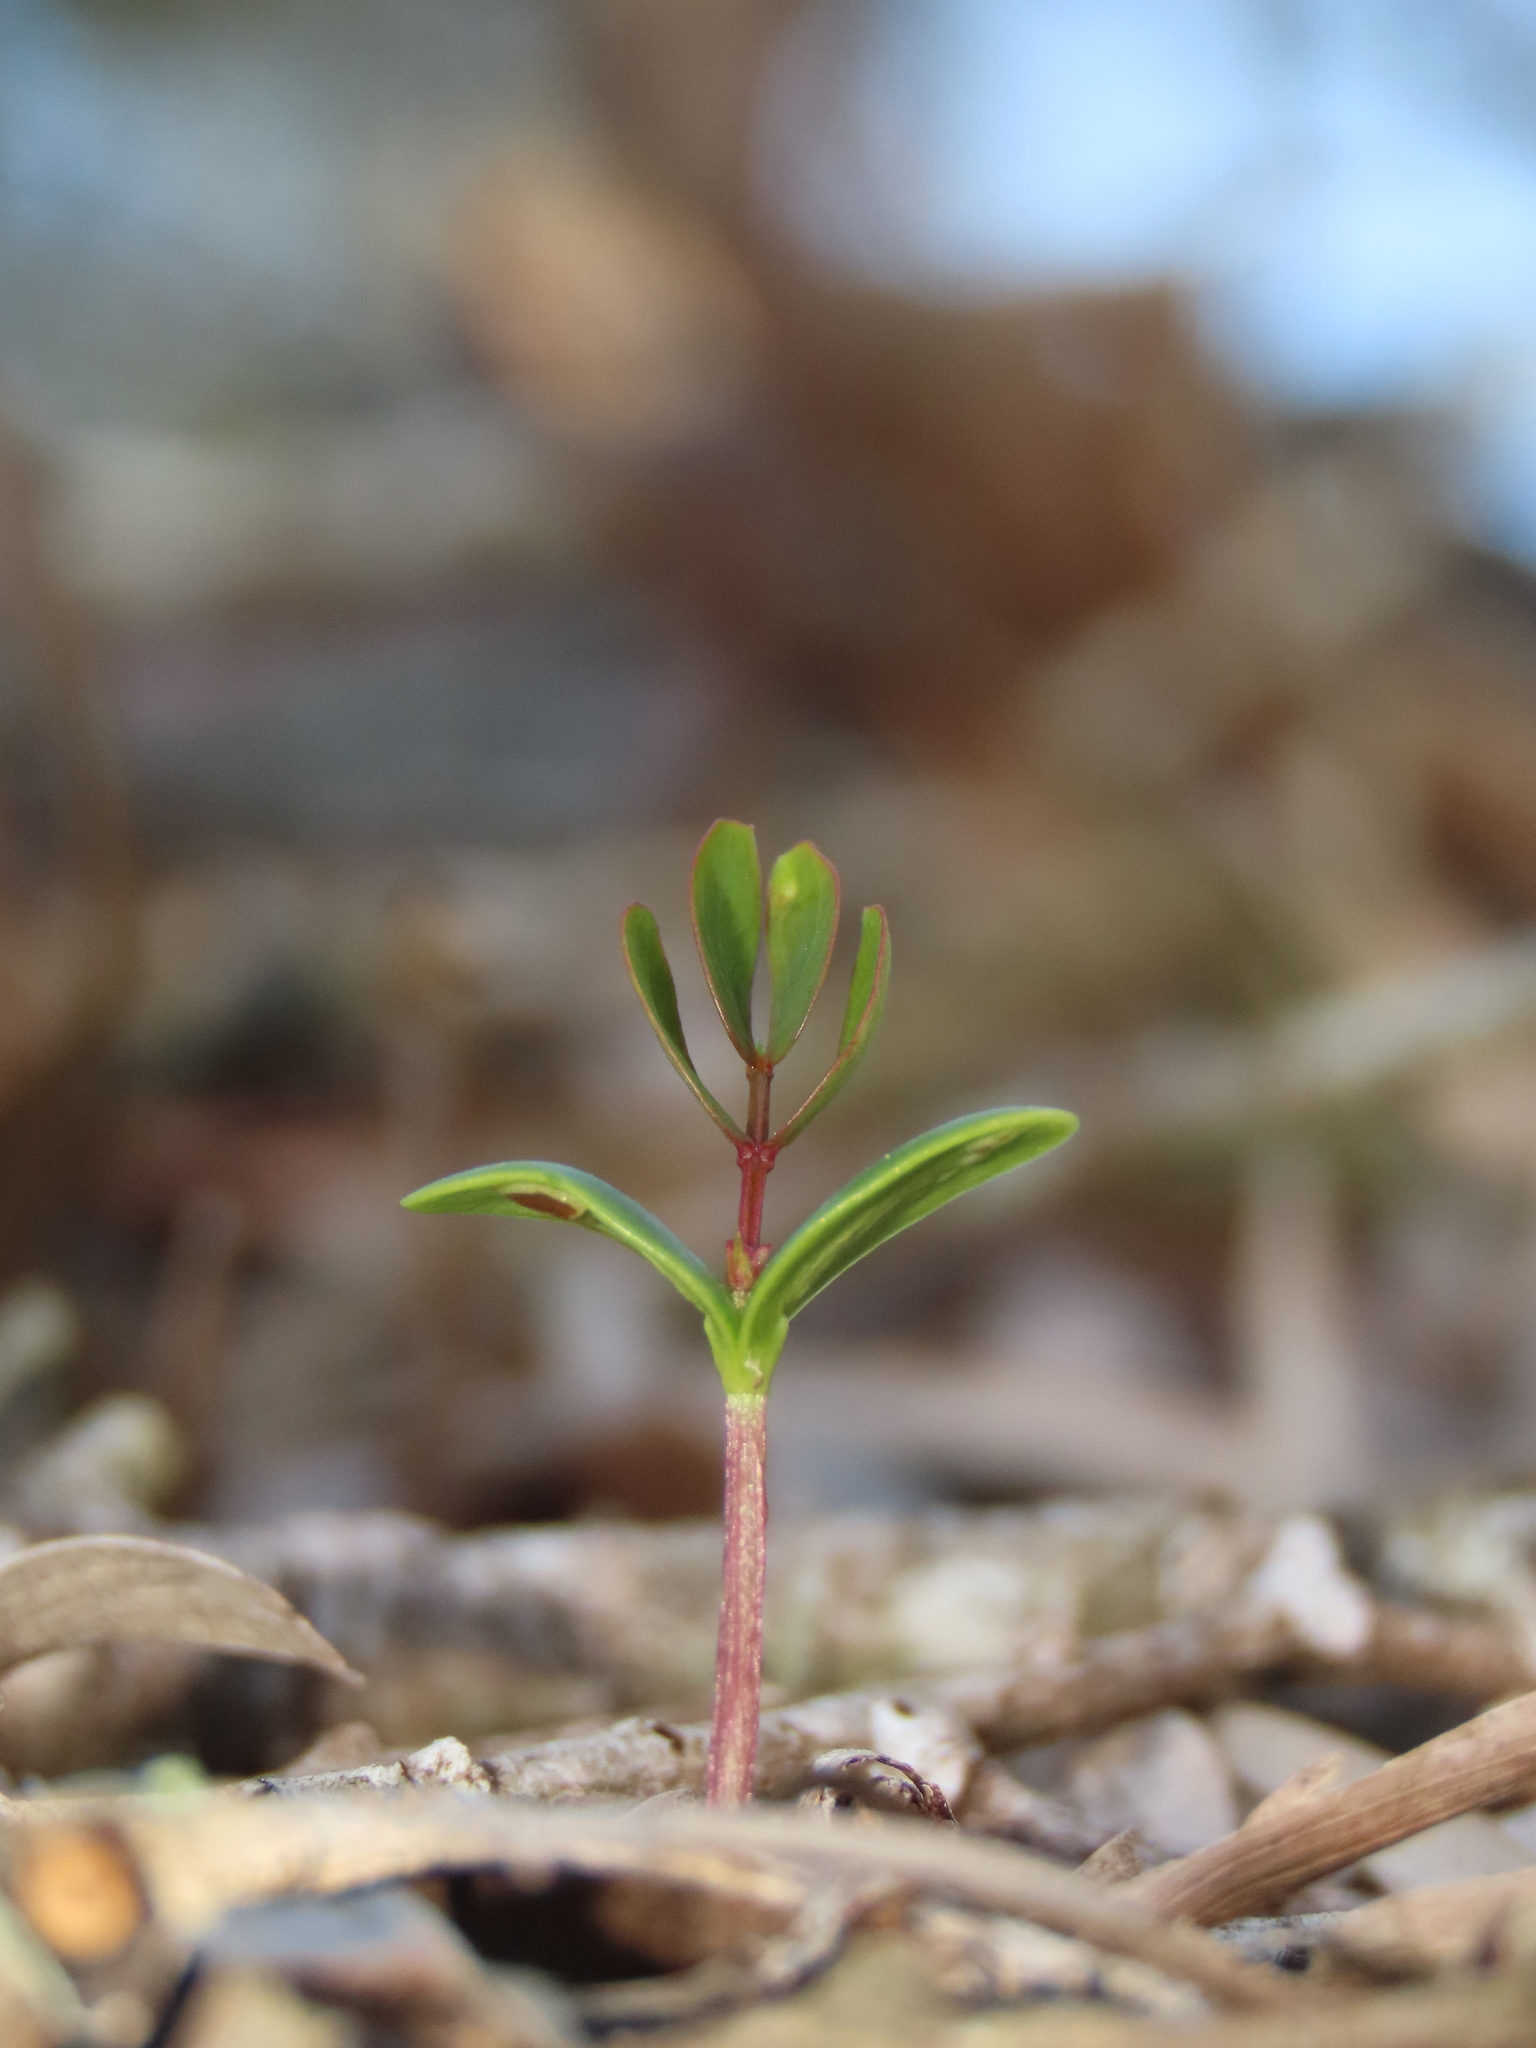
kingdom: Plantae
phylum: Tracheophyta
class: Magnoliopsida
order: Fabales
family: Fabaceae
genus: Acacia
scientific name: Acacia confusa
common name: Formosan koa
